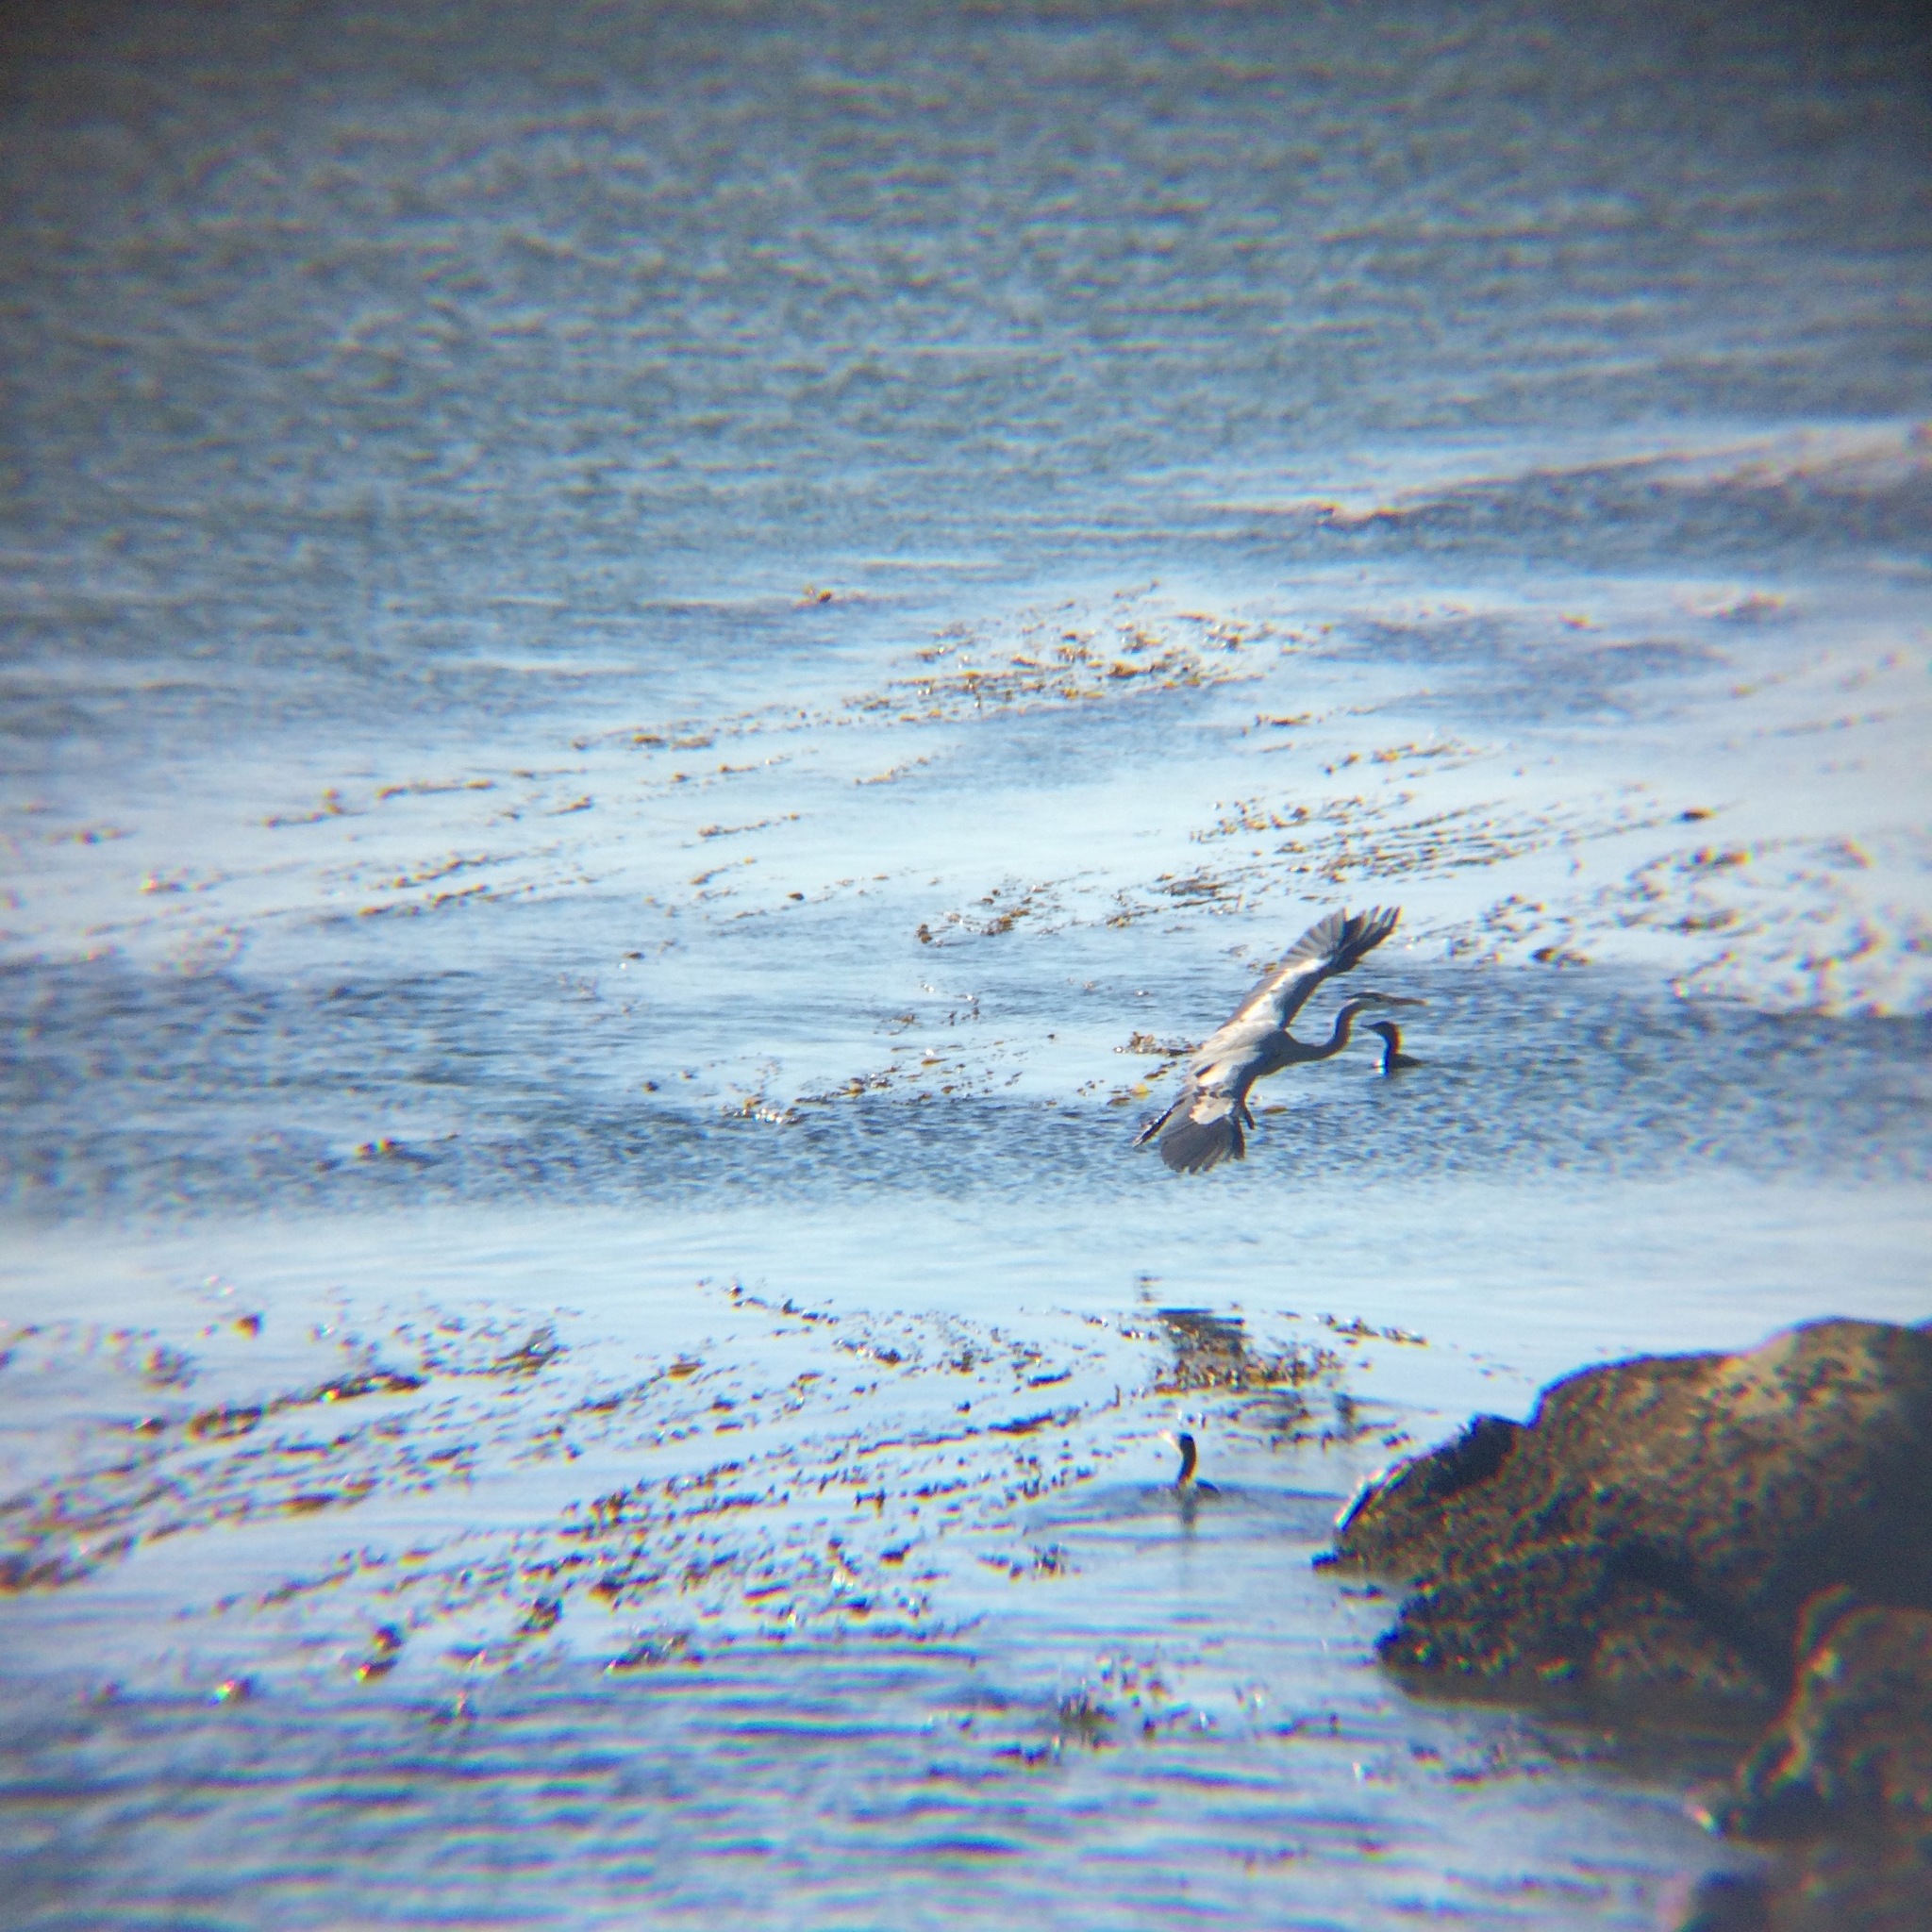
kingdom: Animalia
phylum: Chordata
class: Aves
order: Pelecaniformes
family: Ardeidae
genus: Ardea
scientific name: Ardea herodias
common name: Great blue heron
